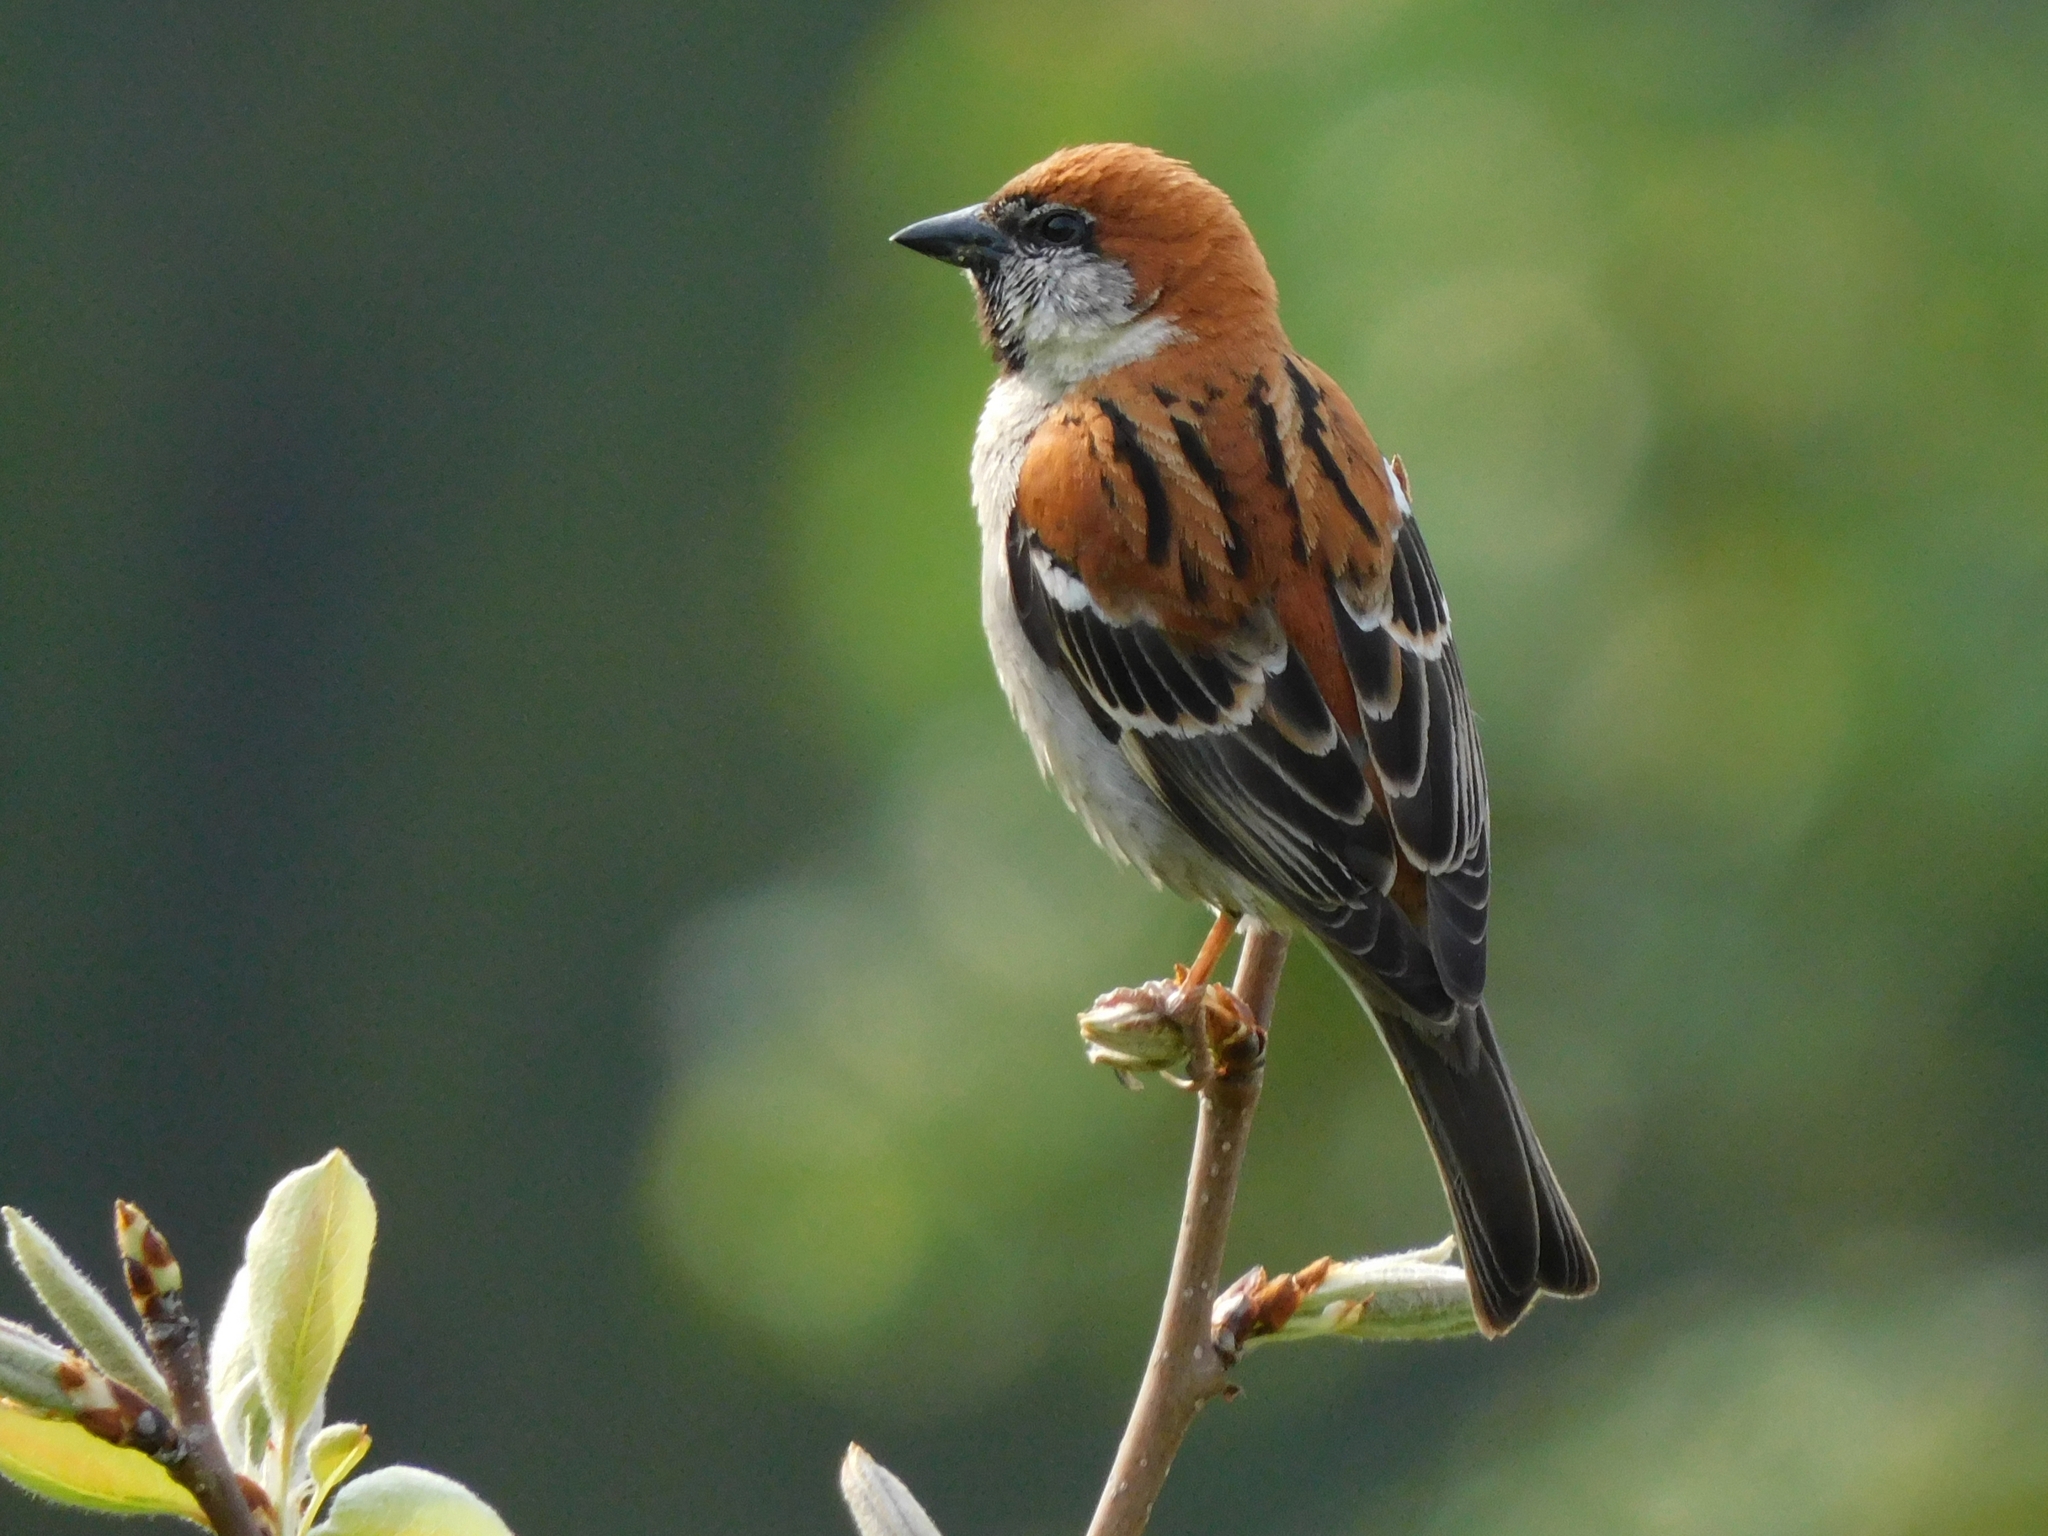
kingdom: Animalia
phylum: Chordata
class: Aves
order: Passeriformes
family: Passeridae
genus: Passer
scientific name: Passer cinnamomeus
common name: Russet sparrow
